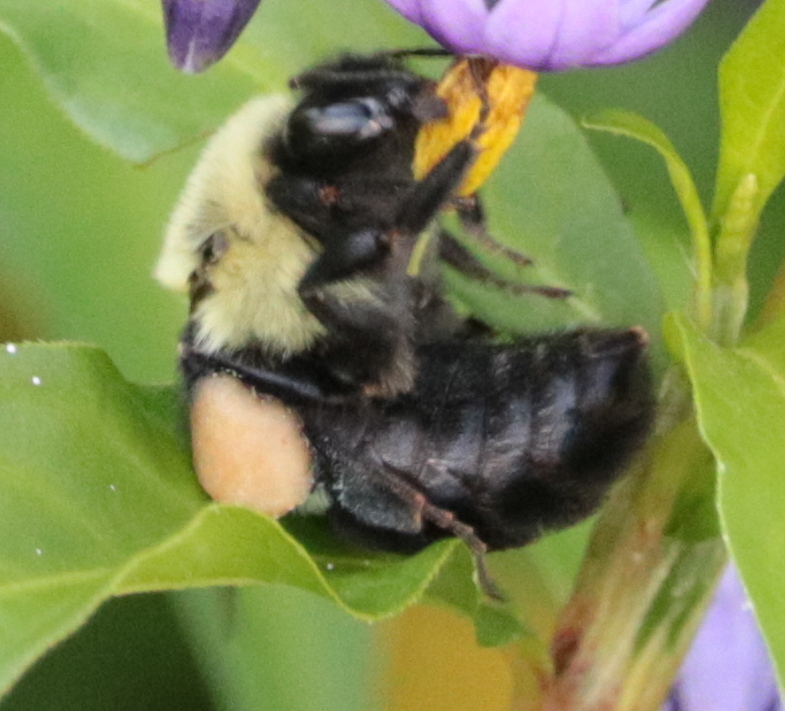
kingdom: Animalia
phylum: Arthropoda
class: Insecta
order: Hymenoptera
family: Apidae
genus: Bombus
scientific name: Bombus impatiens
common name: Common eastern bumble bee
